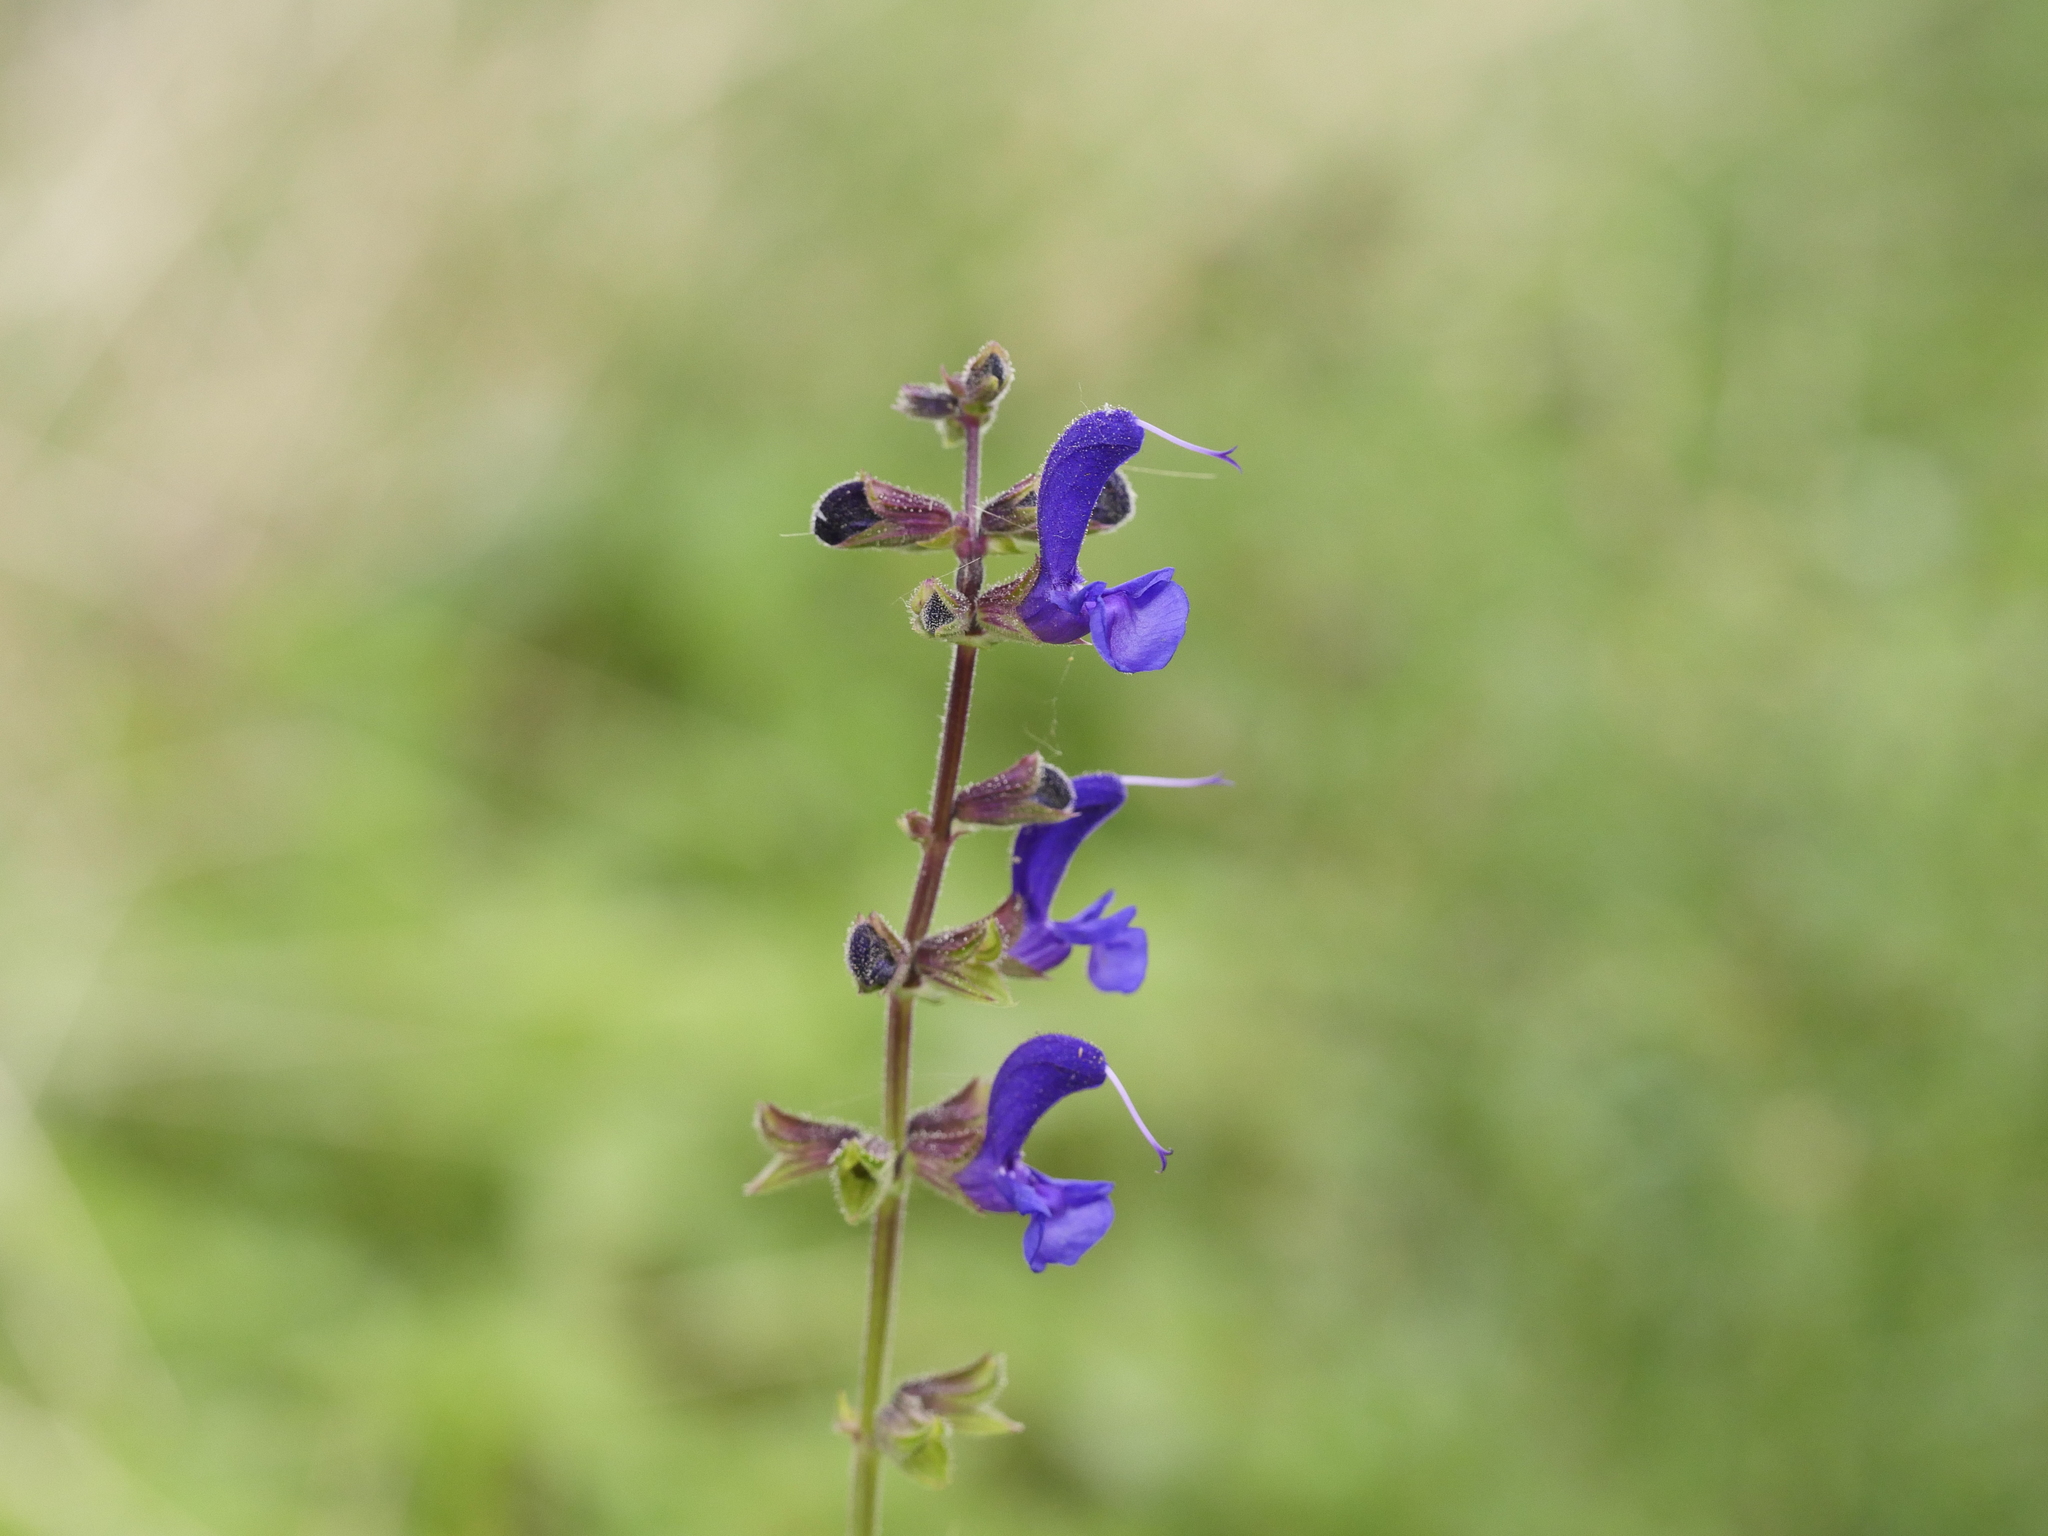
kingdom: Plantae
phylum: Tracheophyta
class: Magnoliopsida
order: Lamiales
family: Lamiaceae
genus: Salvia
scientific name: Salvia pratensis
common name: Meadow sage
